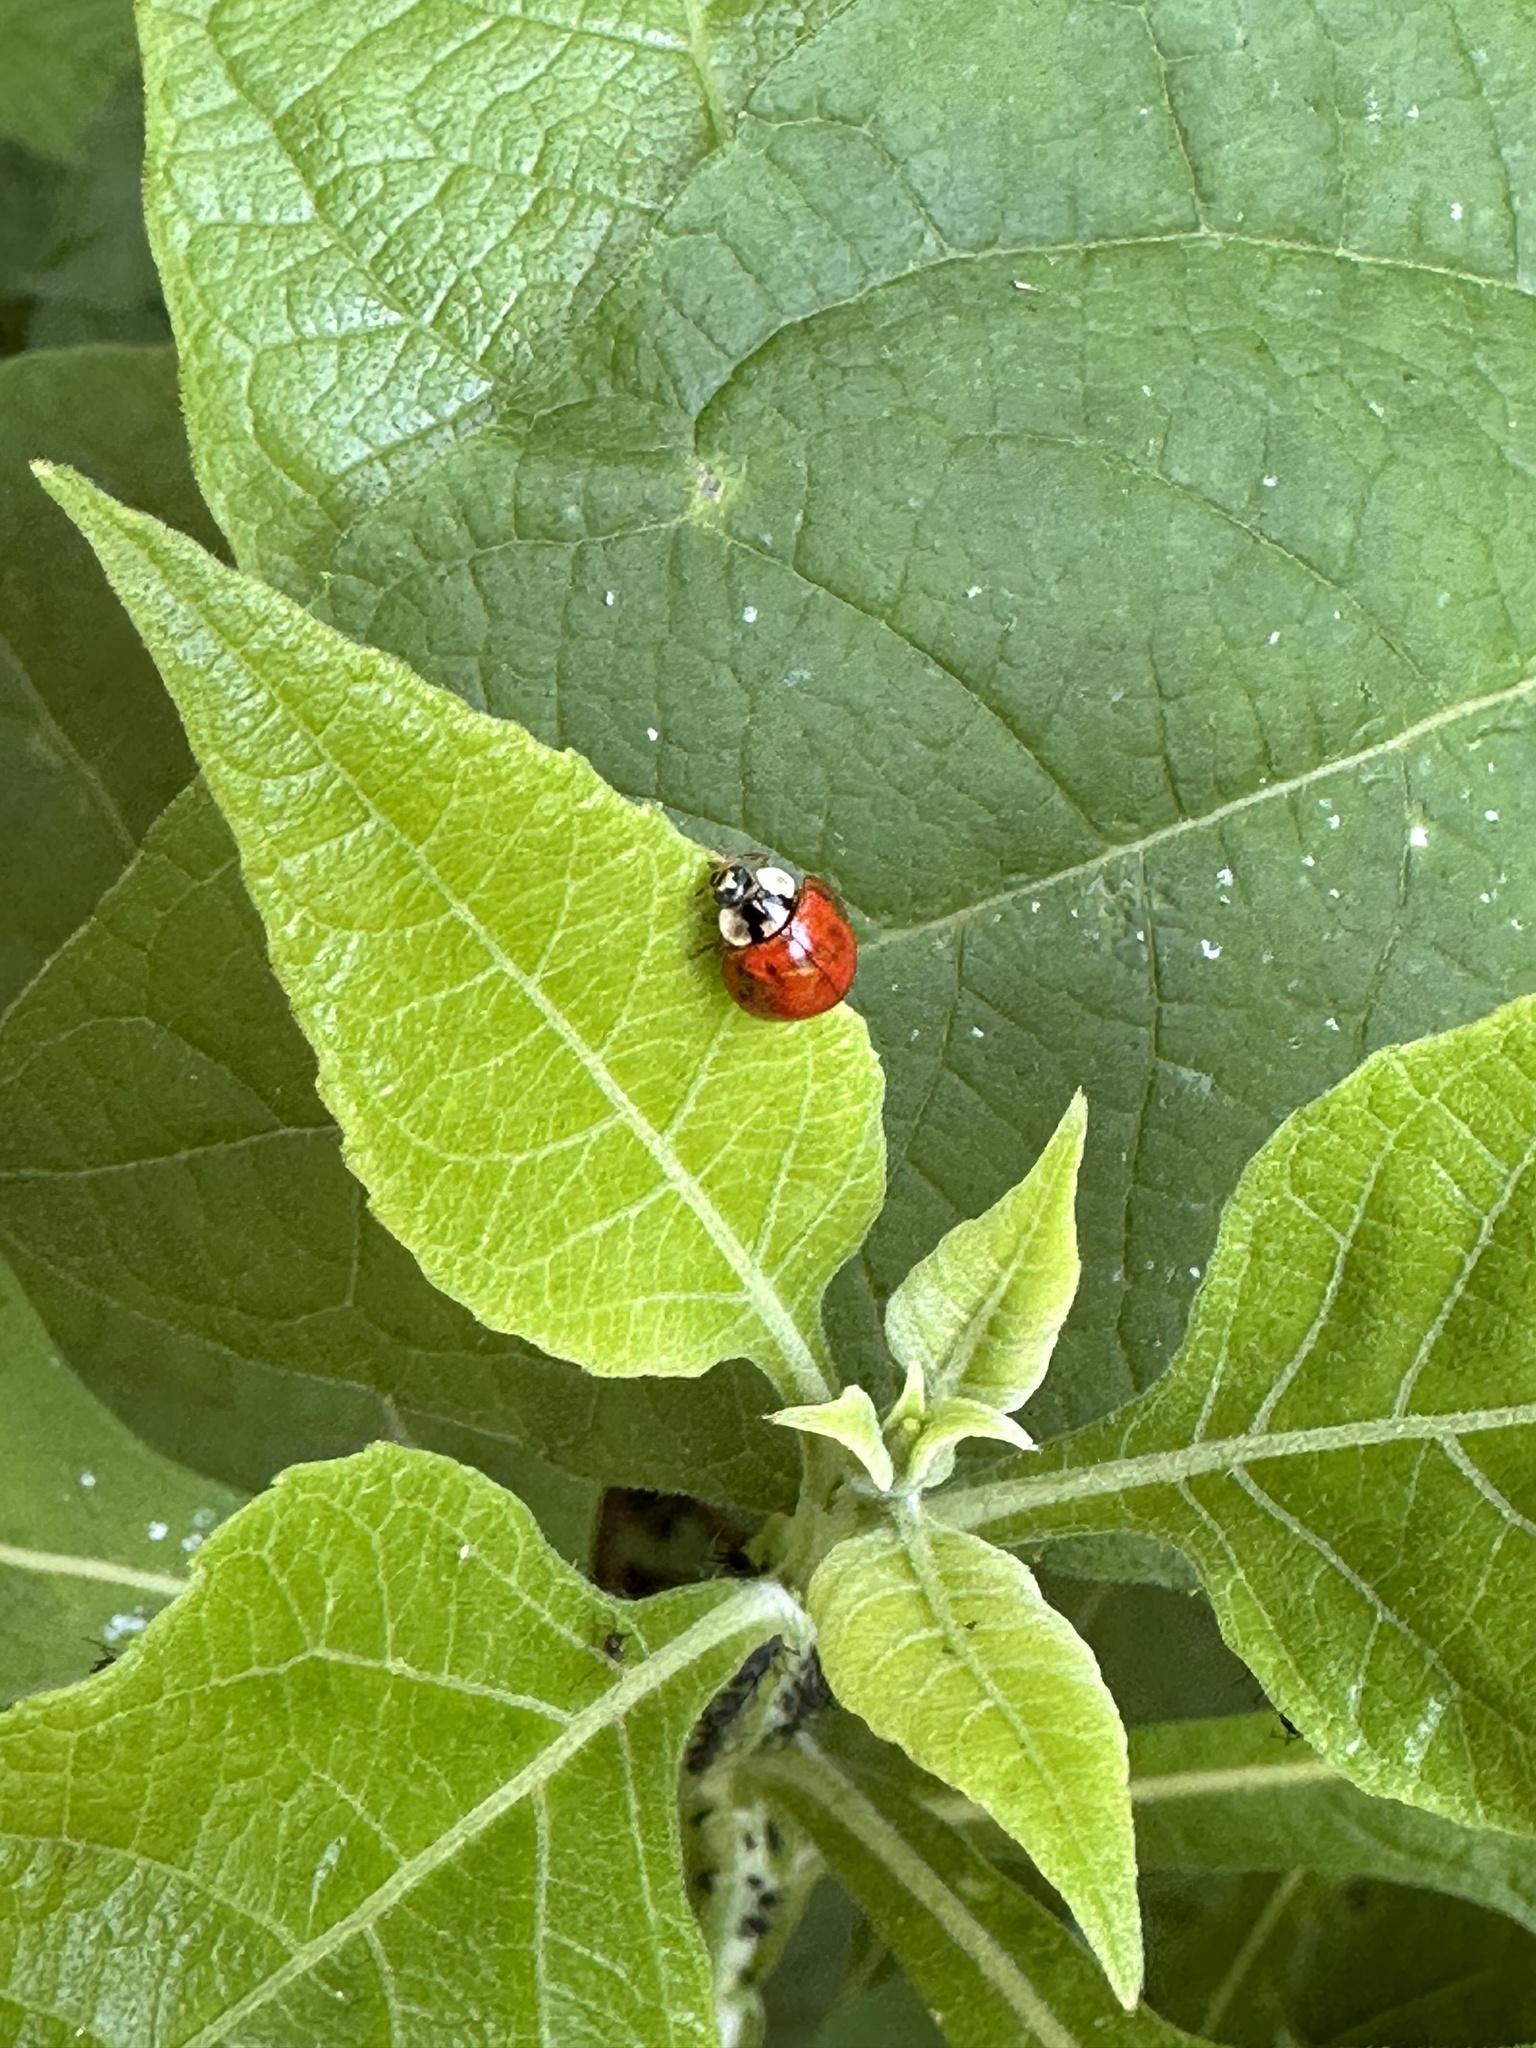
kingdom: Animalia
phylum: Arthropoda
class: Insecta
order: Coleoptera
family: Coccinellidae
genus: Harmonia
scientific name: Harmonia axyridis
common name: Harlequin ladybird
